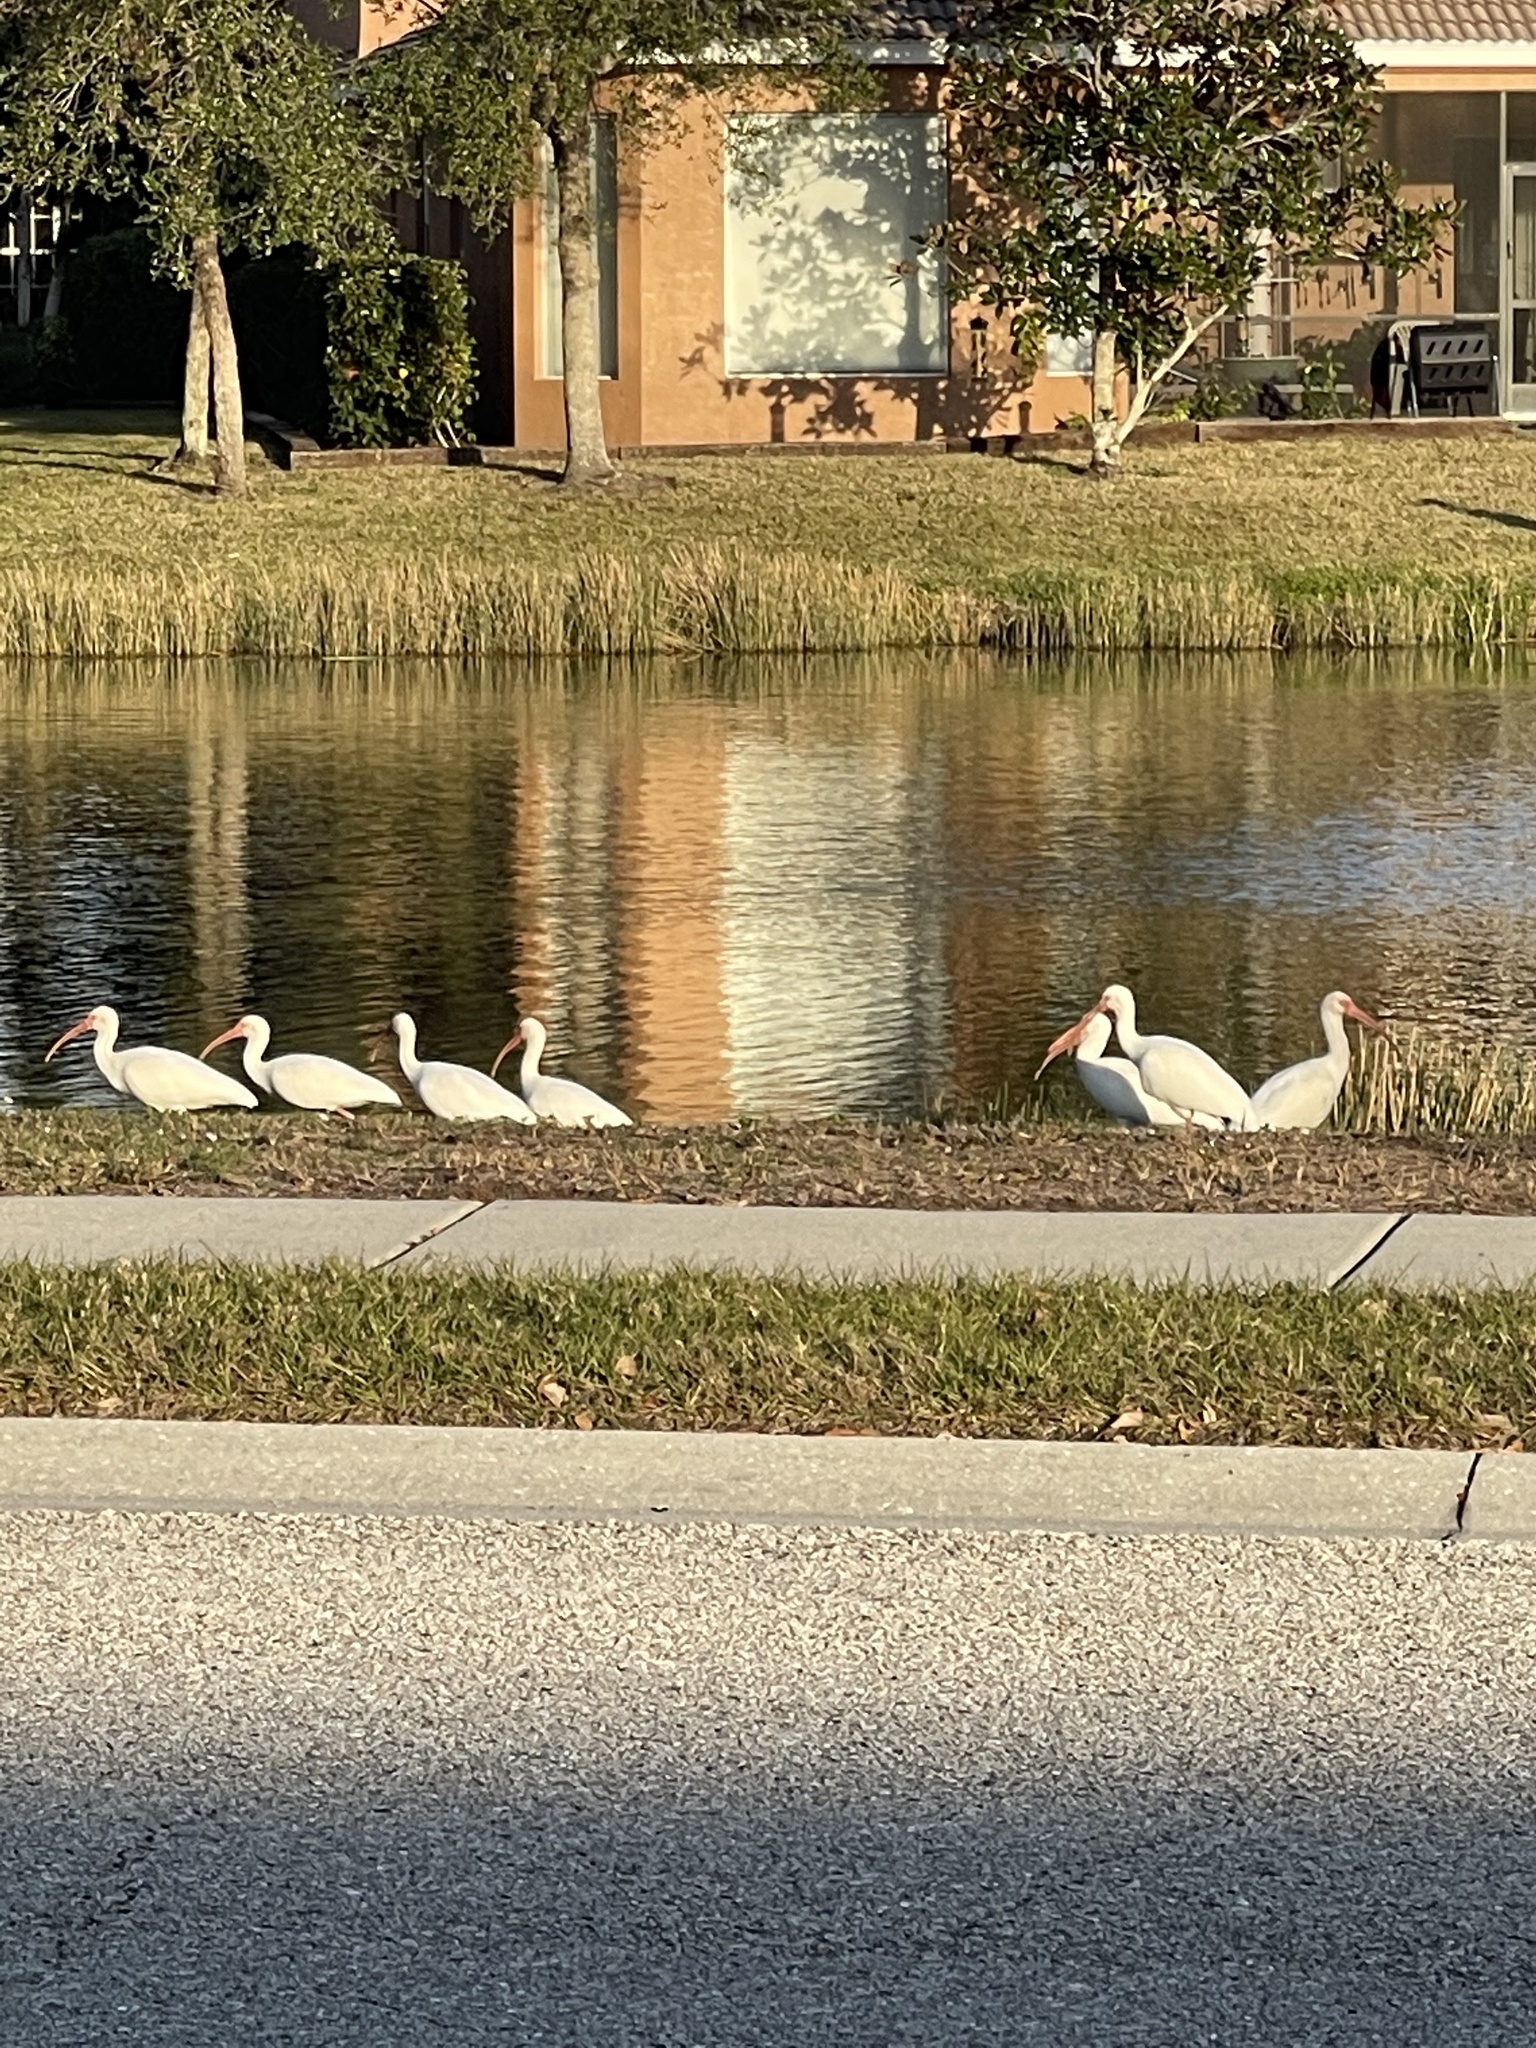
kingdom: Animalia
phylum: Chordata
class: Aves
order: Pelecaniformes
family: Threskiornithidae
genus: Eudocimus
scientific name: Eudocimus albus
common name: White ibis
